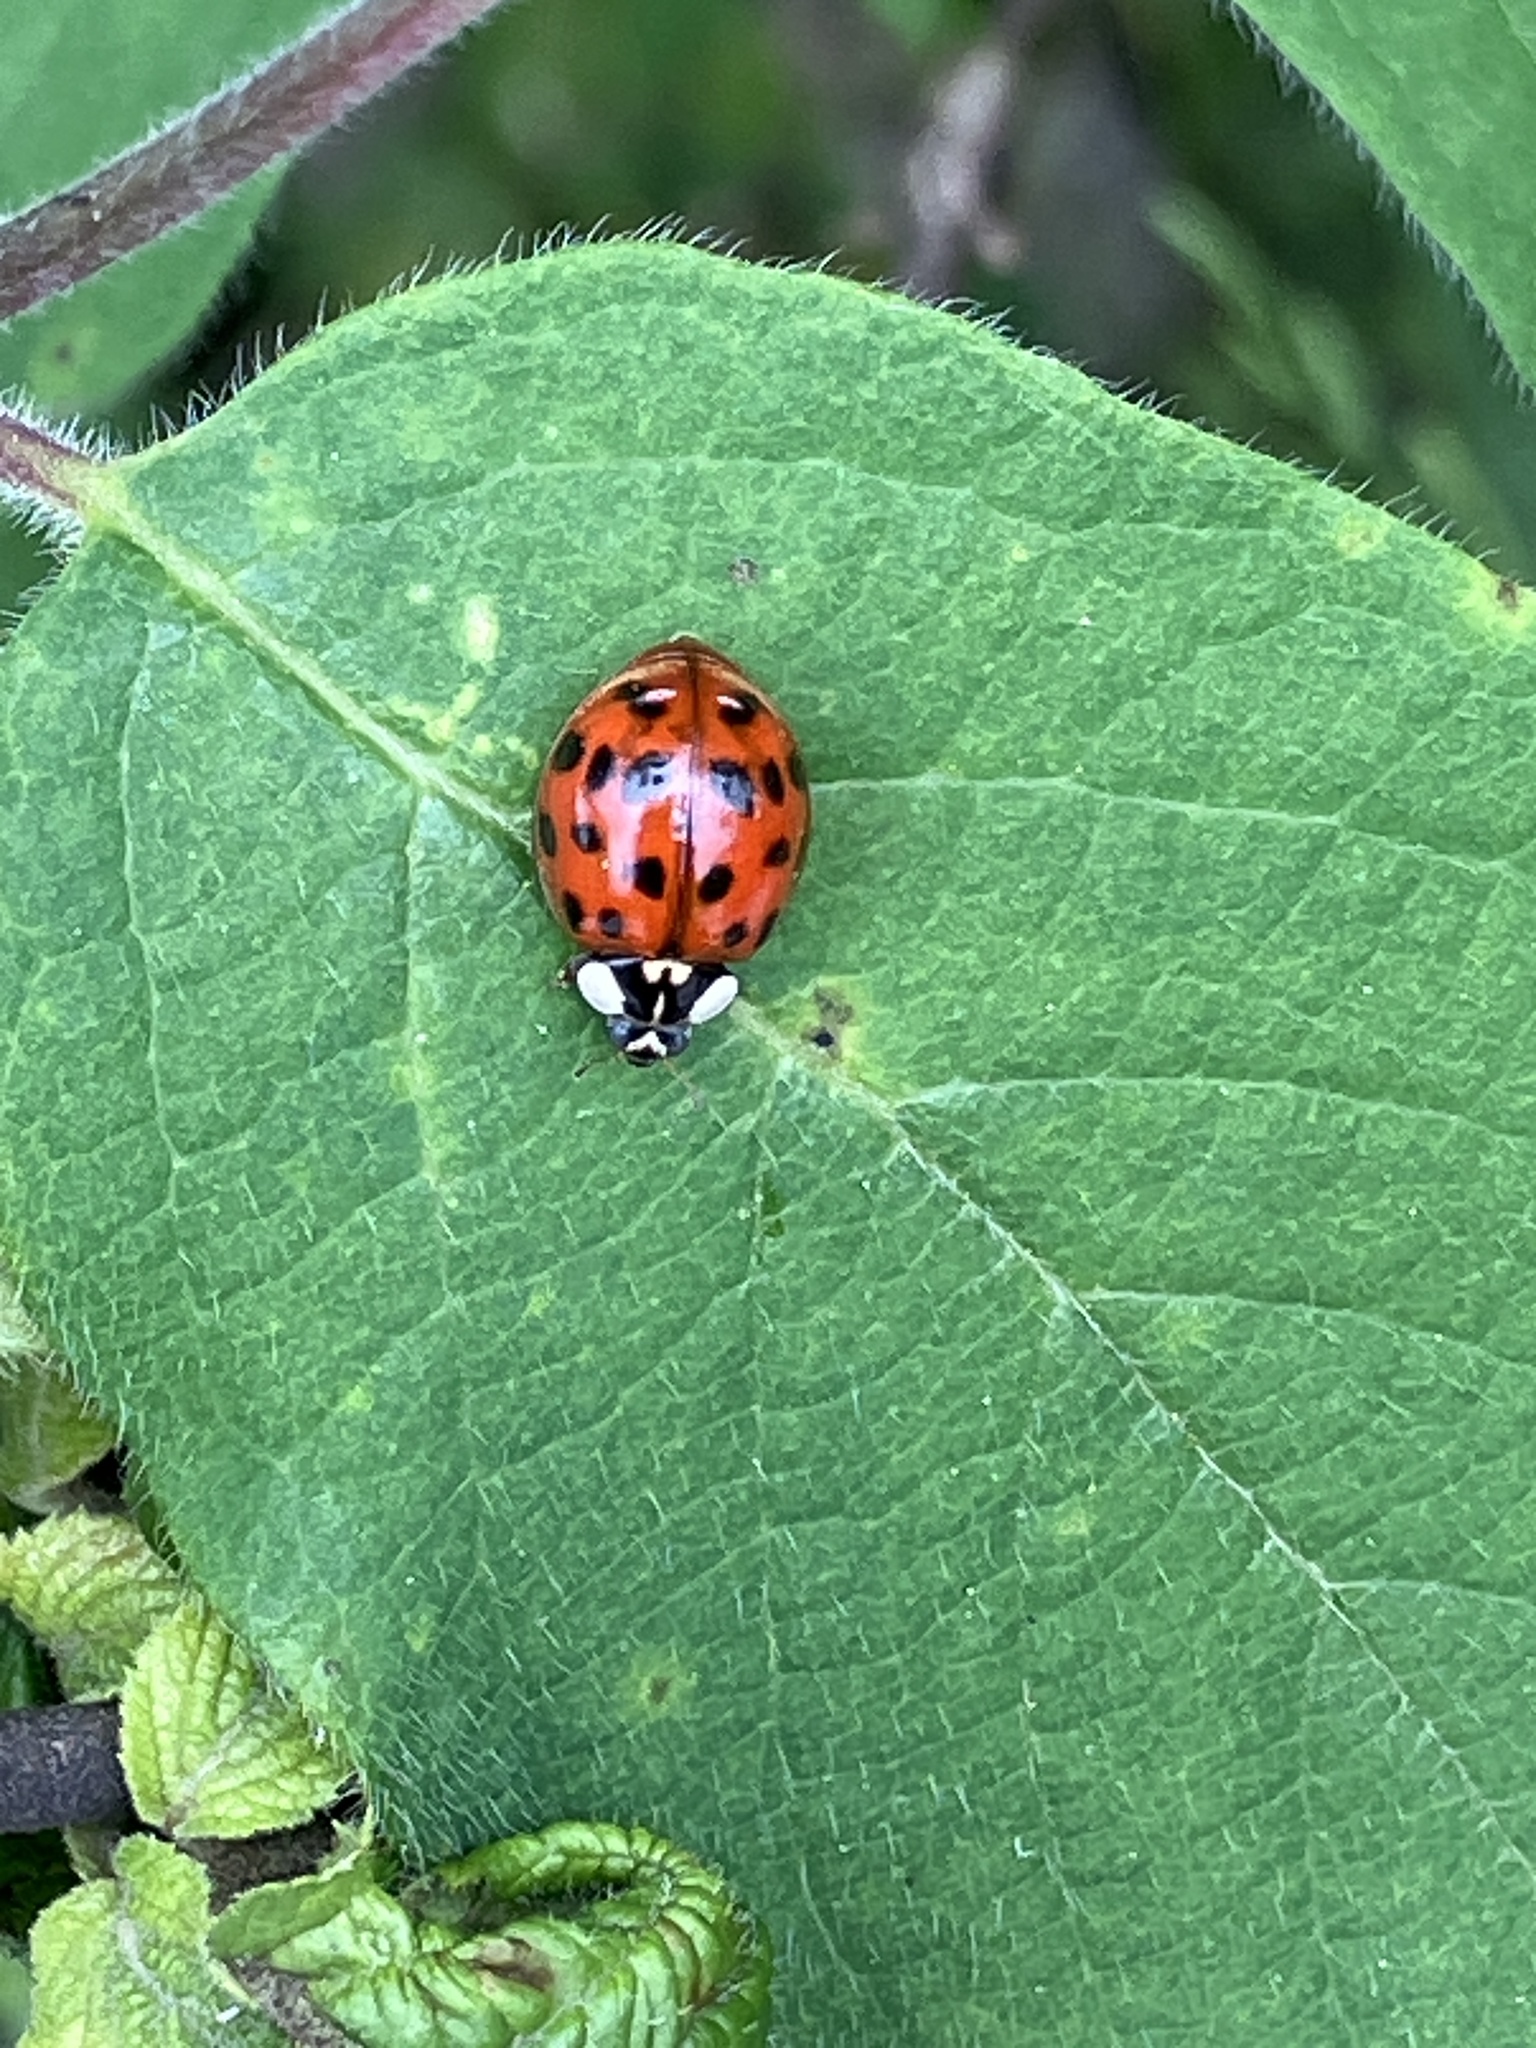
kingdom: Animalia
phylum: Arthropoda
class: Insecta
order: Coleoptera
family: Coccinellidae
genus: Harmonia
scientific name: Harmonia axyridis
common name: Harlequin ladybird
